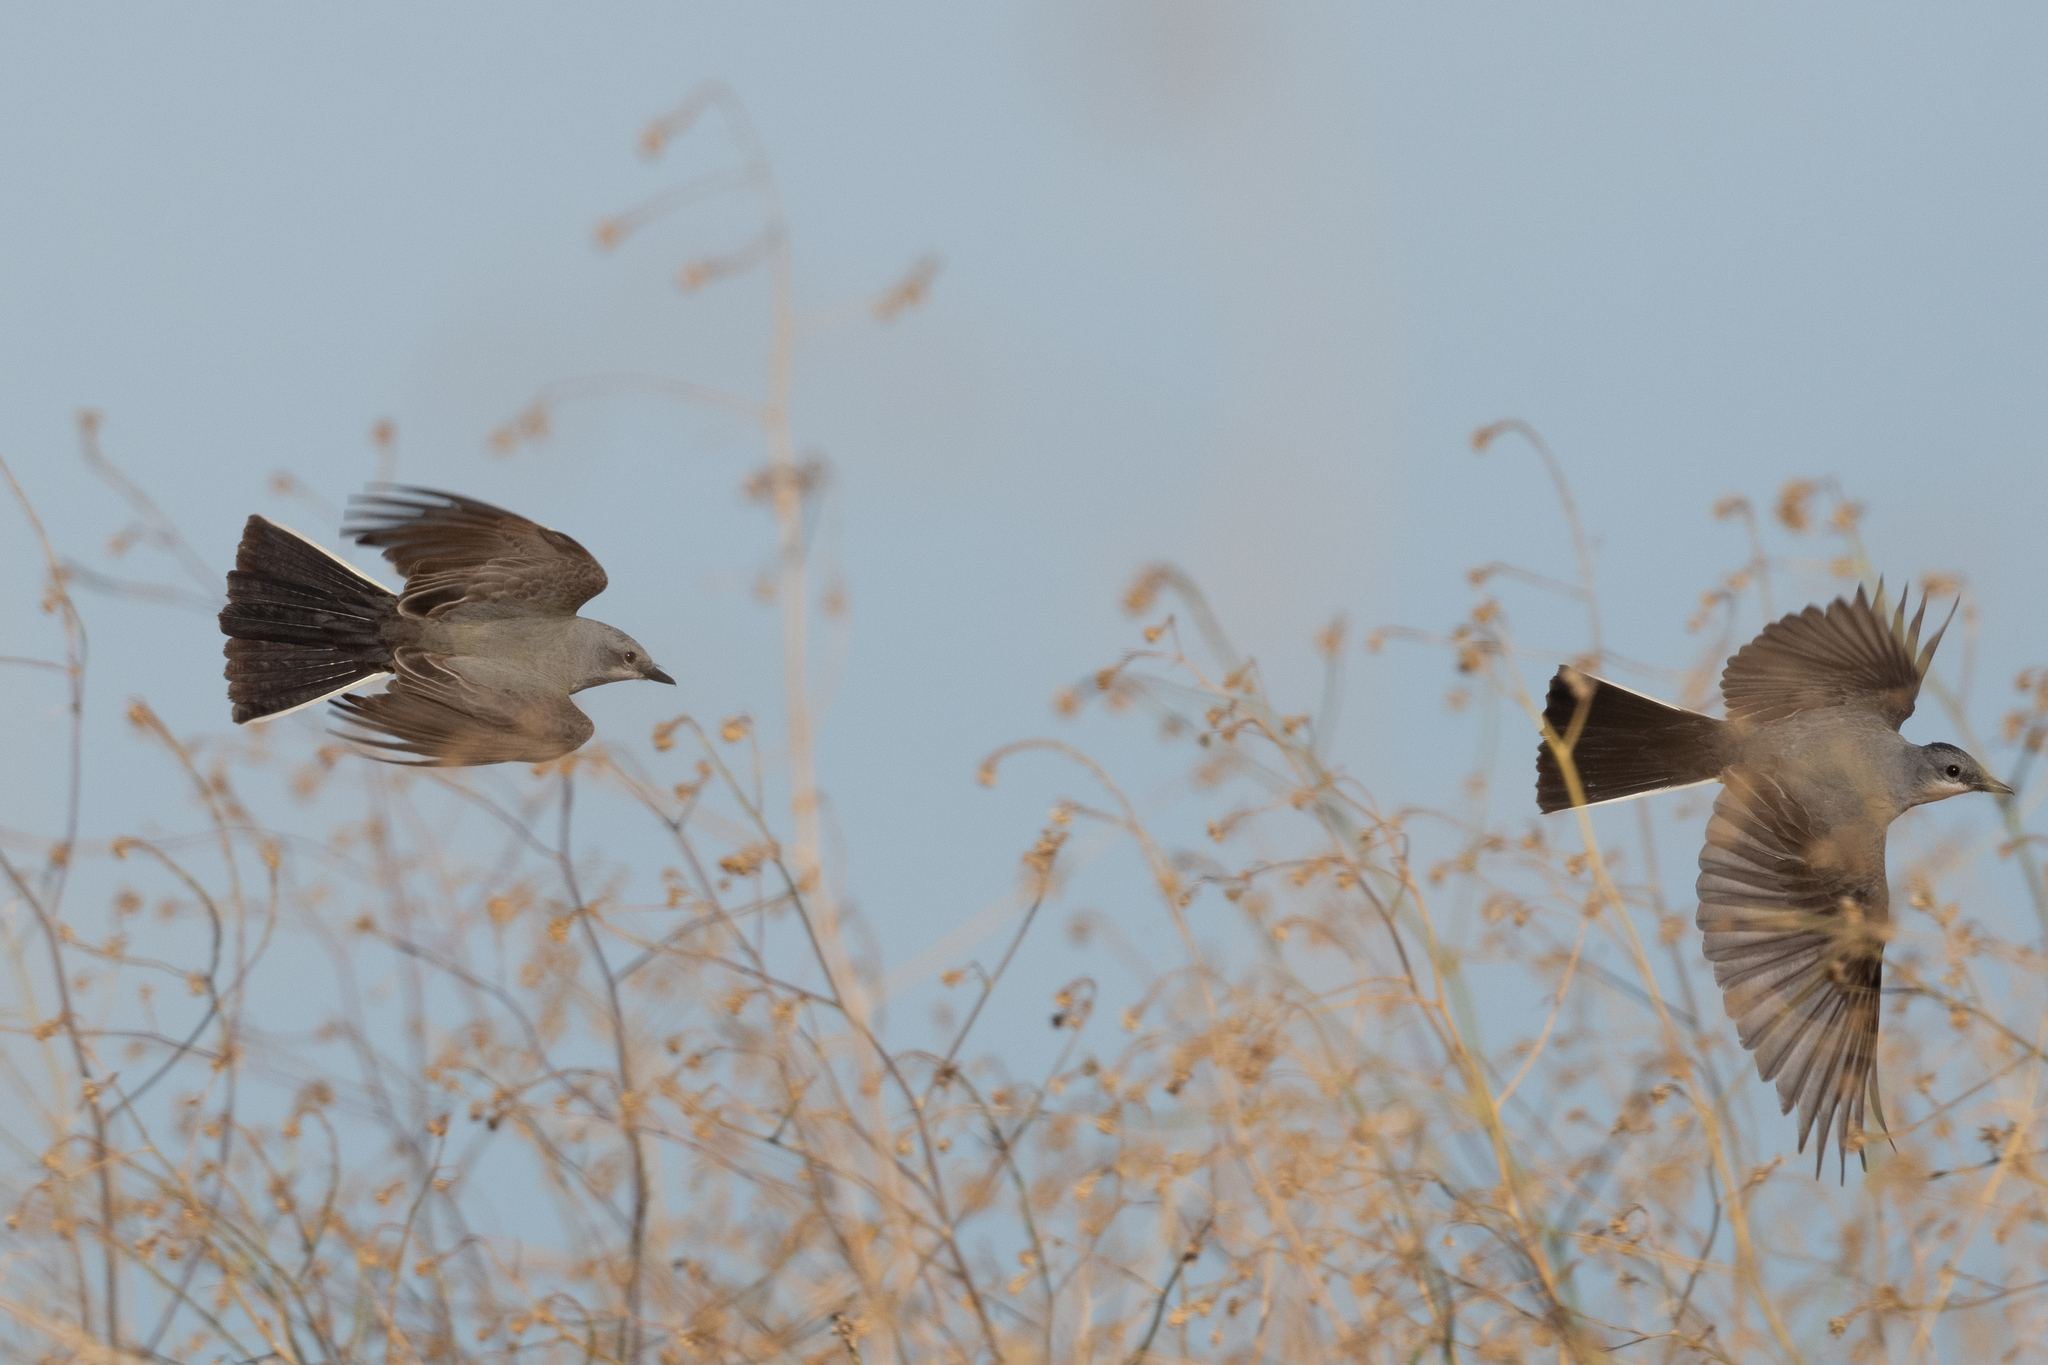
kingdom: Animalia
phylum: Chordata
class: Aves
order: Passeriformes
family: Tyrannidae
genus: Tyrannus
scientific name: Tyrannus verticalis
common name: Western kingbird
